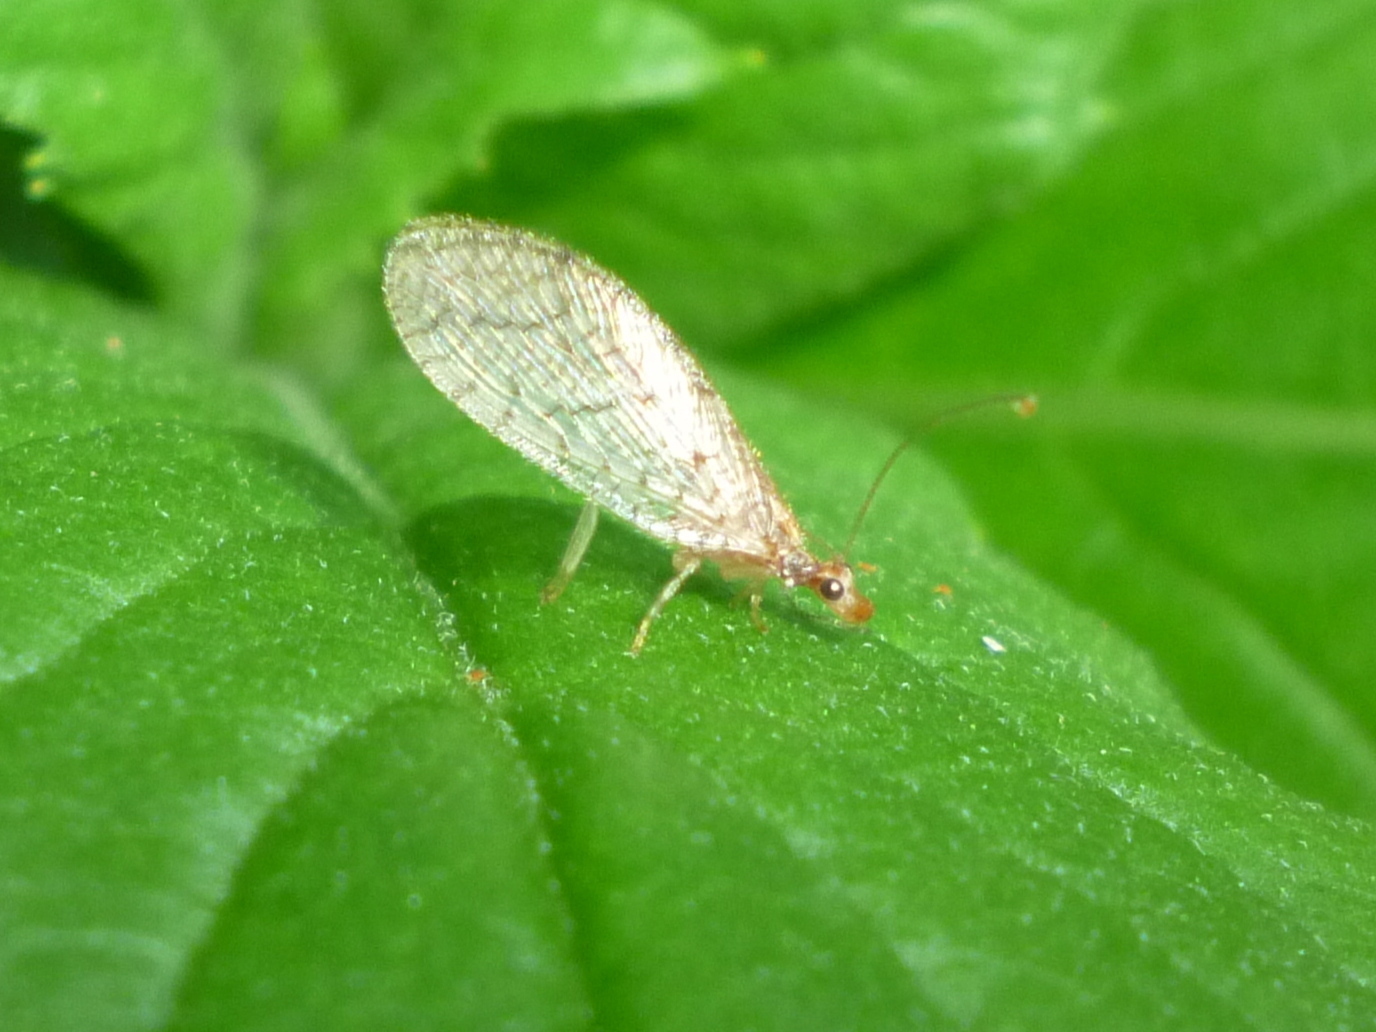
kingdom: Animalia
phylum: Arthropoda
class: Insecta
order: Neuroptera
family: Hemerobiidae
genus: Micromus
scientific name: Micromus posticus
